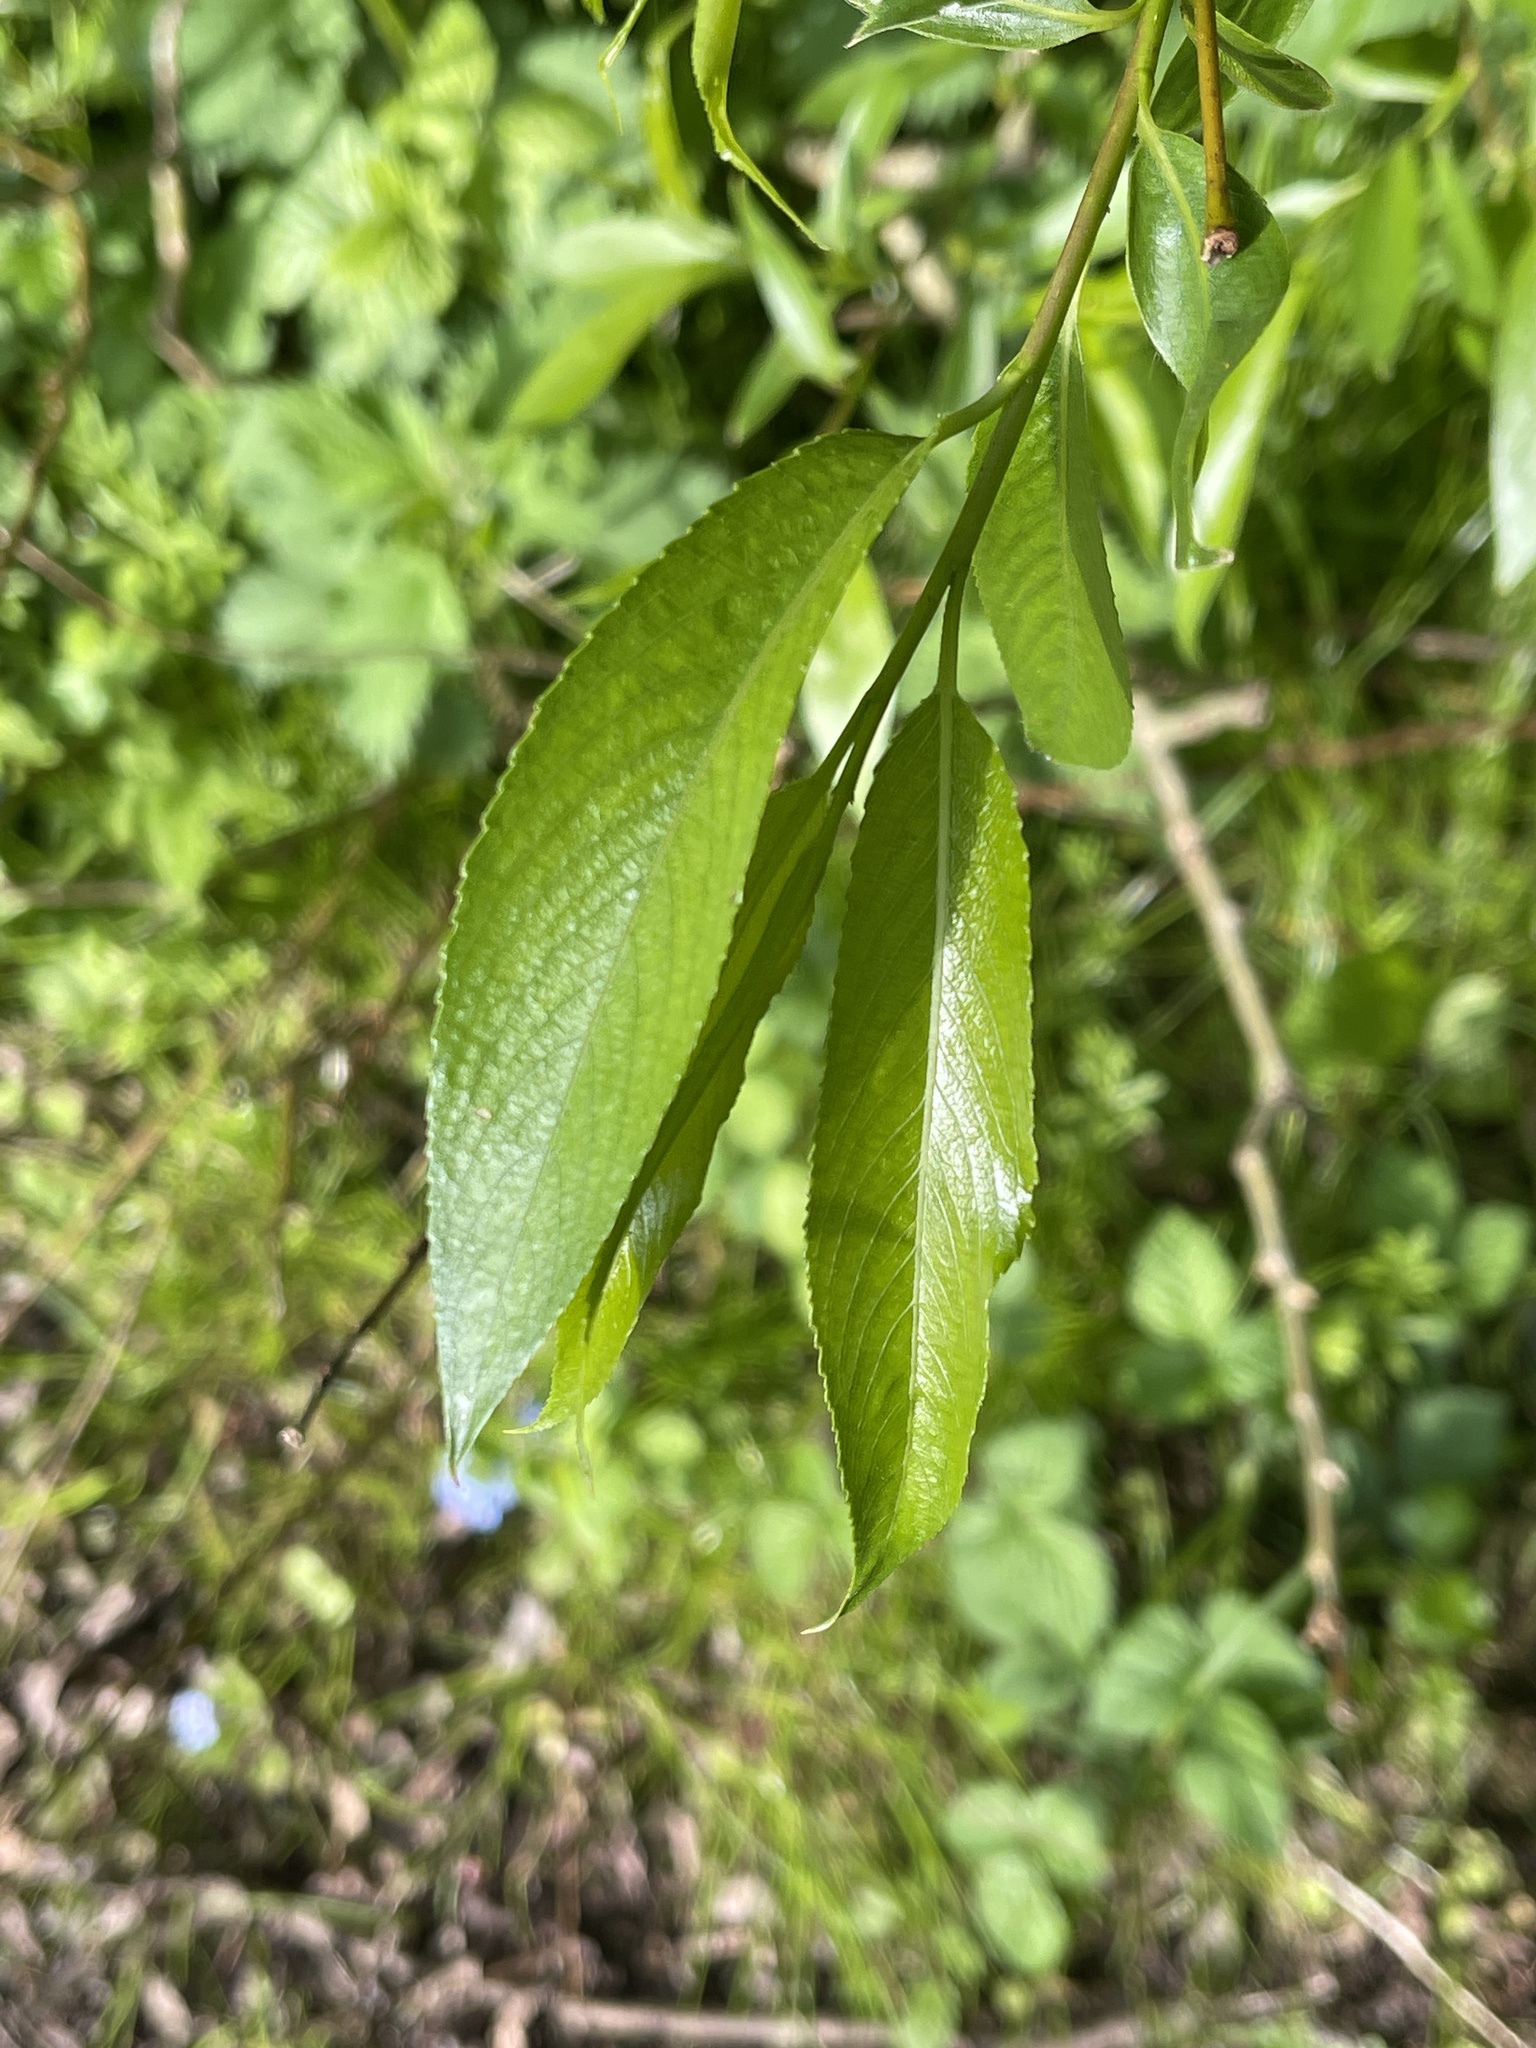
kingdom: Plantae
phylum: Tracheophyta
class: Magnoliopsida
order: Malpighiales
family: Salicaceae
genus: Salix
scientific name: Salix fragilis
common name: Crack willow
